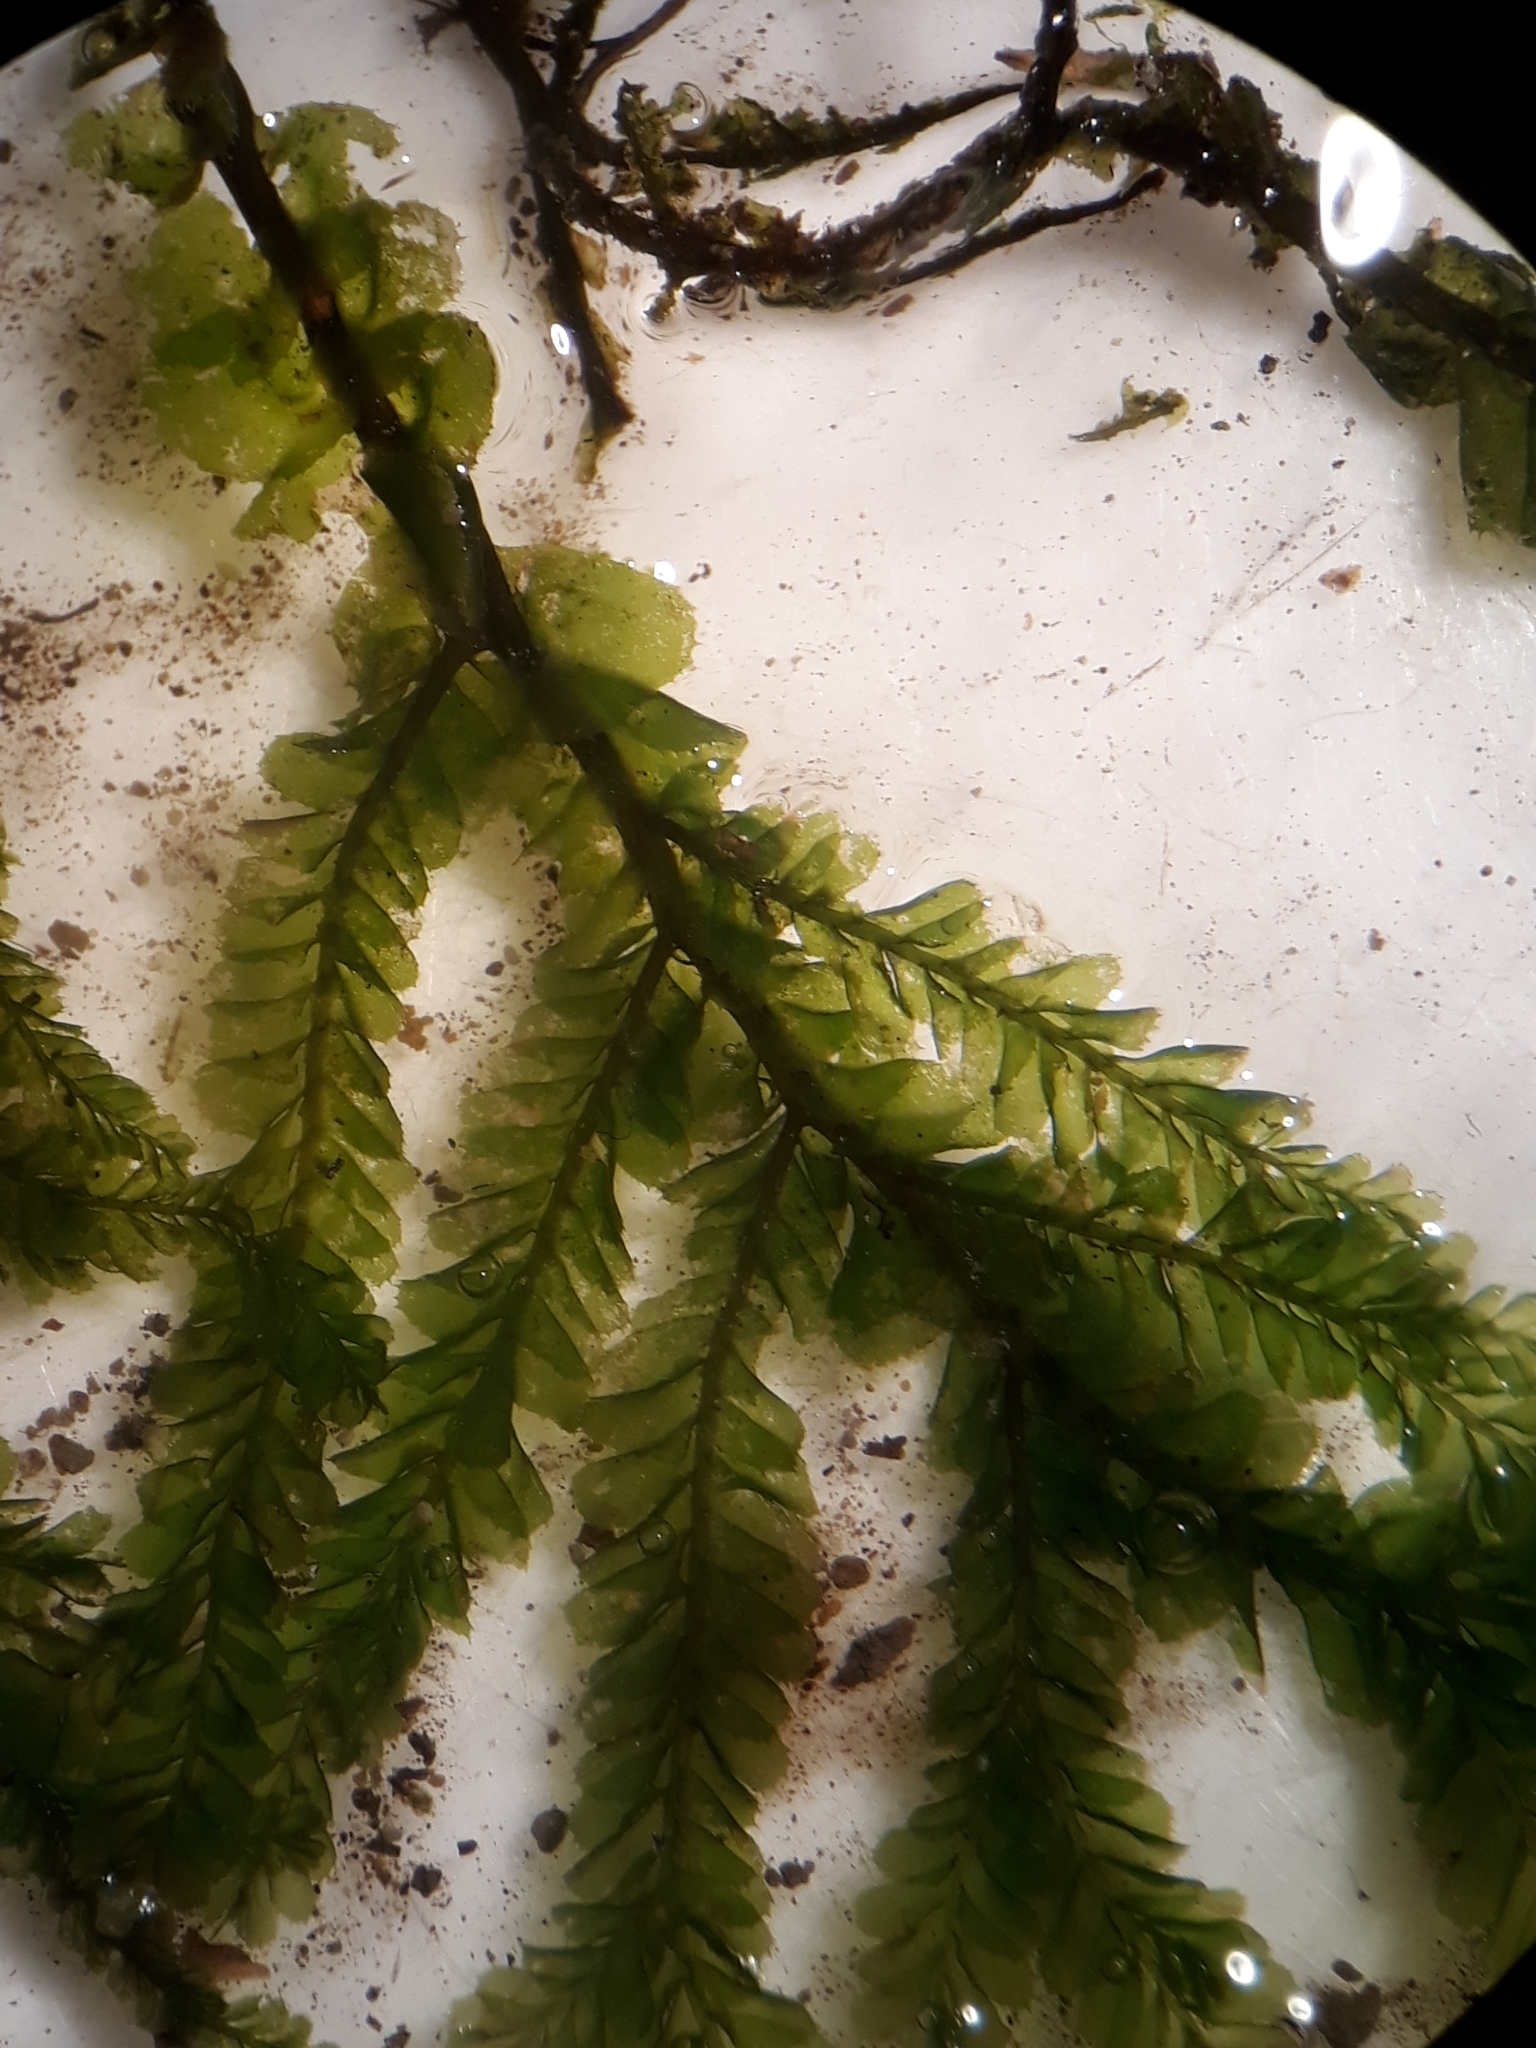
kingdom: Plantae
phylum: Marchantiophyta
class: Jungermanniopsida
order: Jungermanniales
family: Plagiochilaceae
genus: Plagiochila
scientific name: Plagiochila rutlandii
